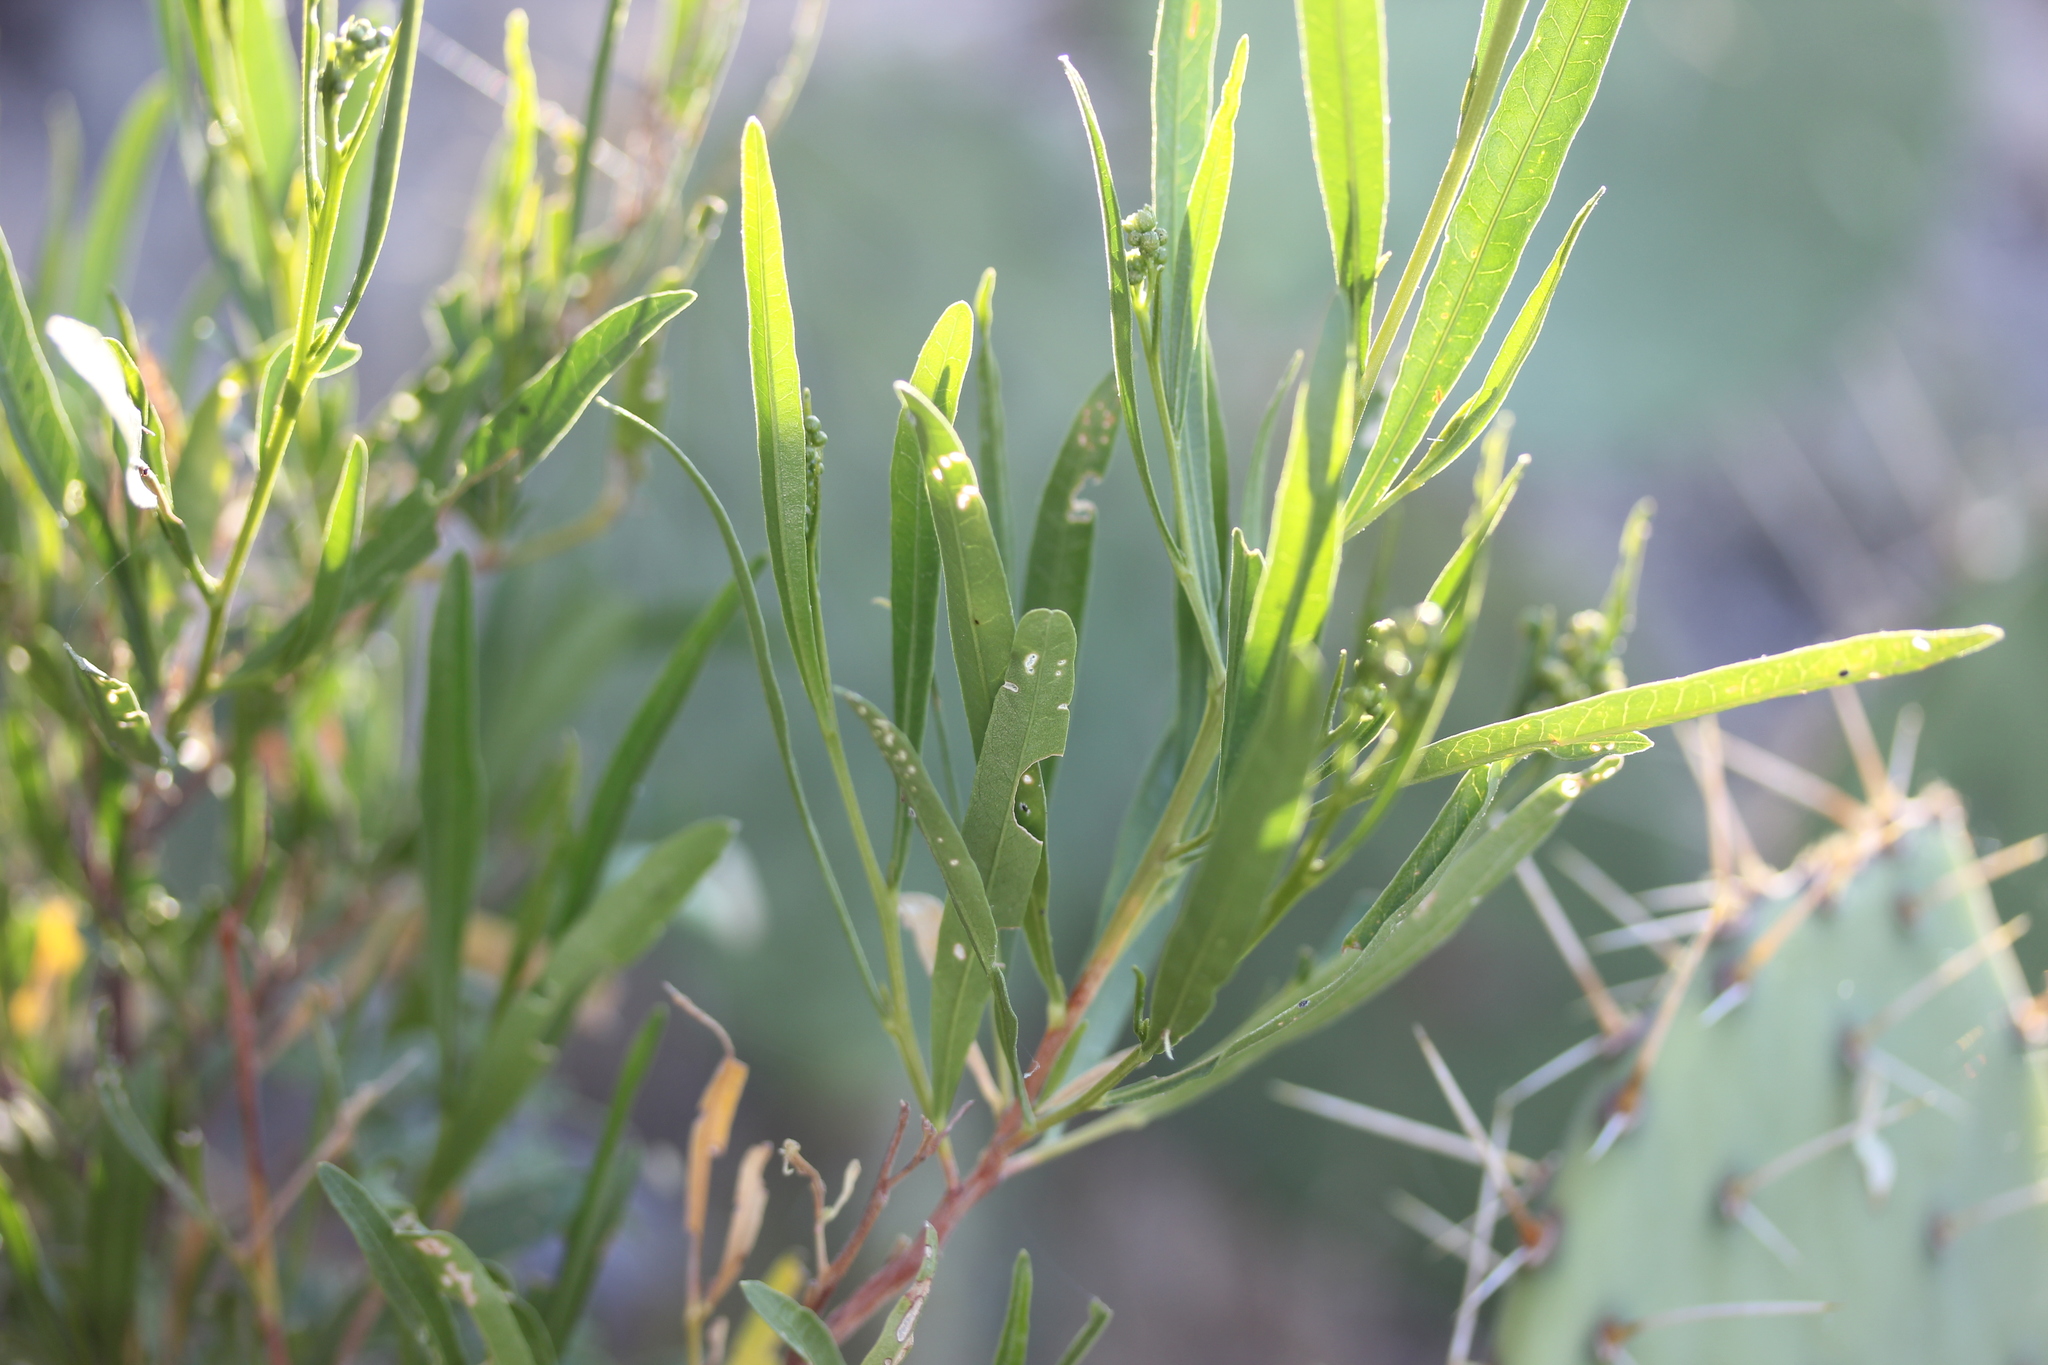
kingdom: Plantae
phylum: Tracheophyta
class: Magnoliopsida
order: Sapindales
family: Sapindaceae
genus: Dodonaea
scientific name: Dodonaea viscosa
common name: Hopbush
